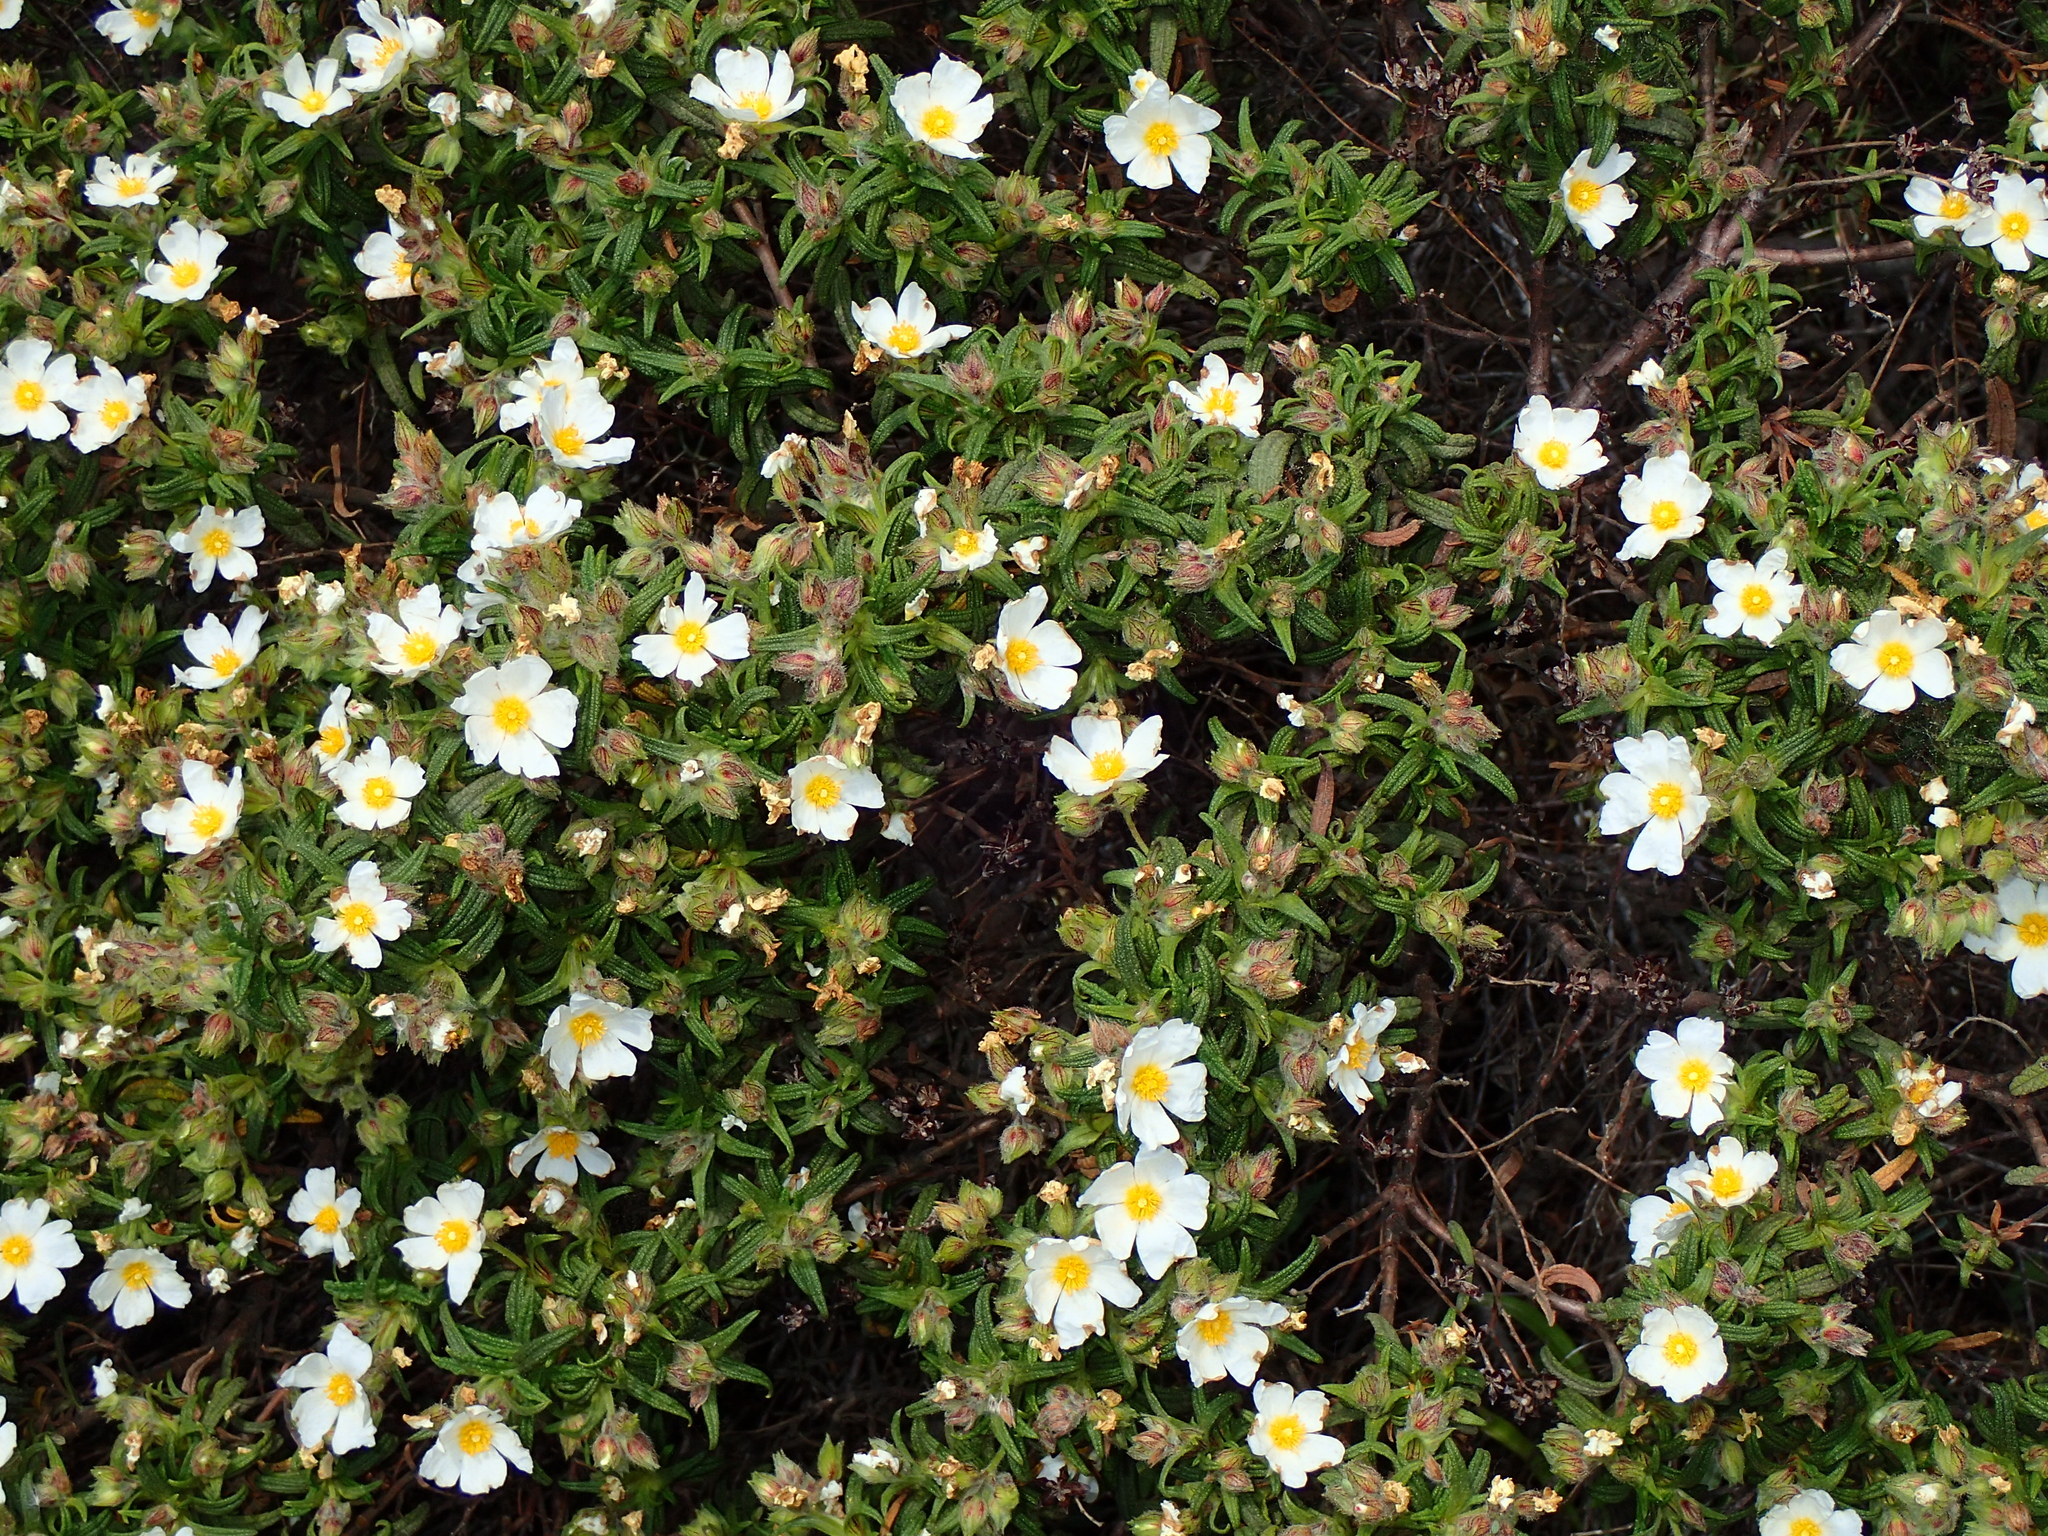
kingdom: Plantae
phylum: Tracheophyta
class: Magnoliopsida
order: Malvales
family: Cistaceae
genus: Cistus
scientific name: Cistus monspeliensis
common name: Montpelier cistus
